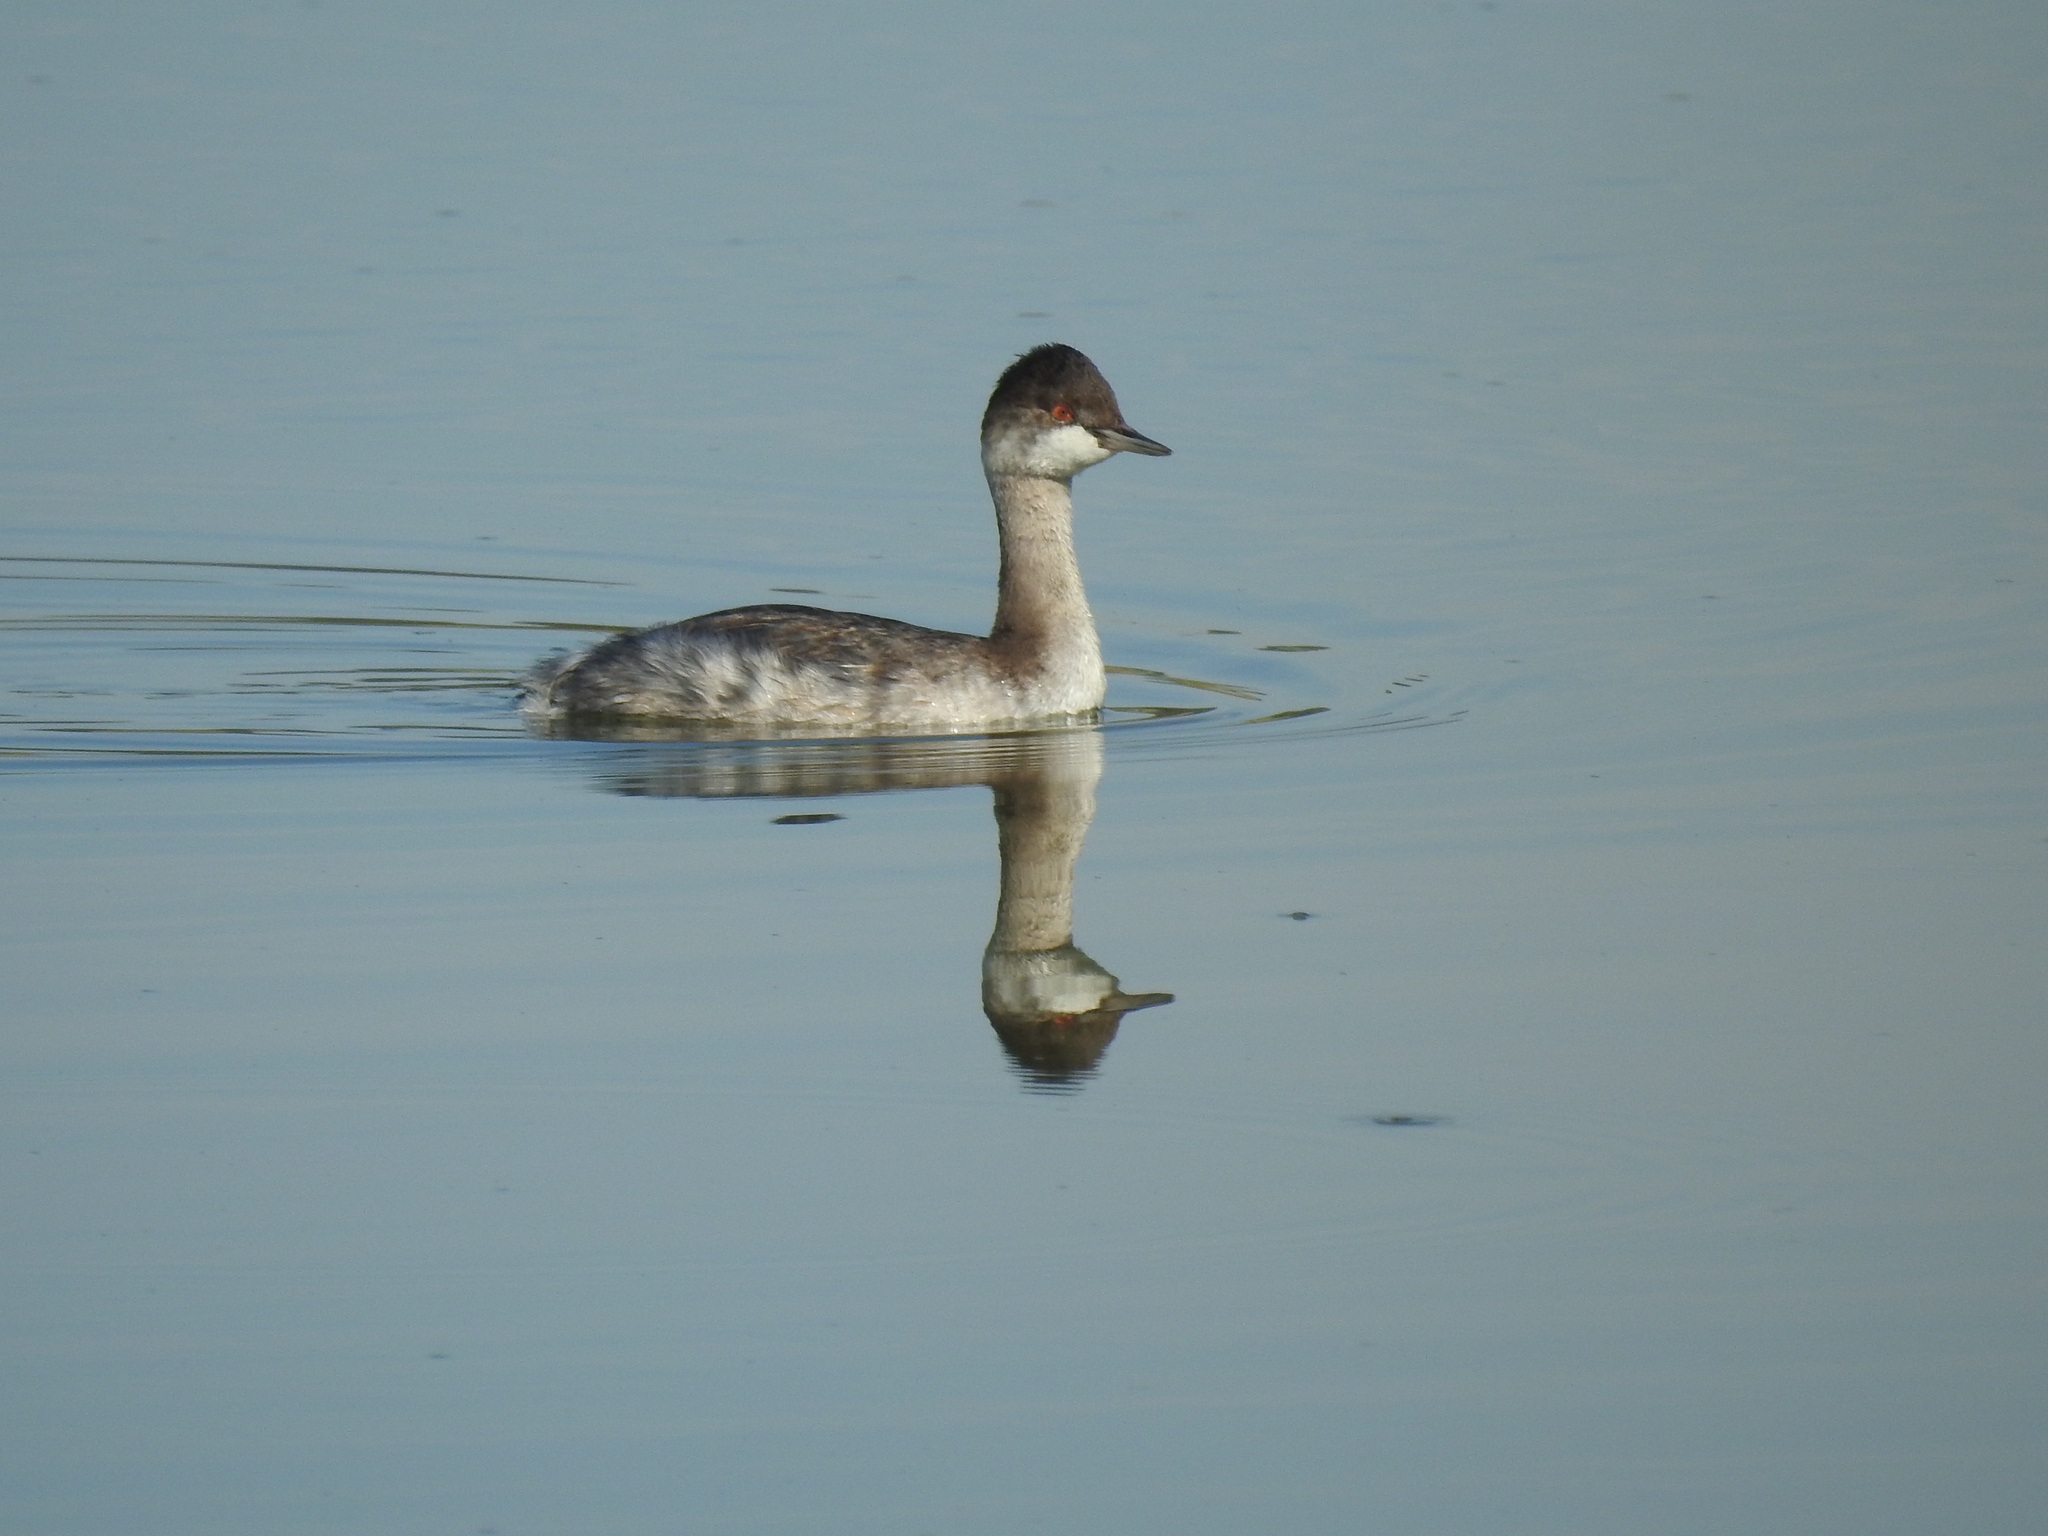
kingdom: Animalia
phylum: Chordata
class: Aves
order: Podicipediformes
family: Podicipedidae
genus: Podiceps
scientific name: Podiceps nigricollis
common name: Black-necked grebe
